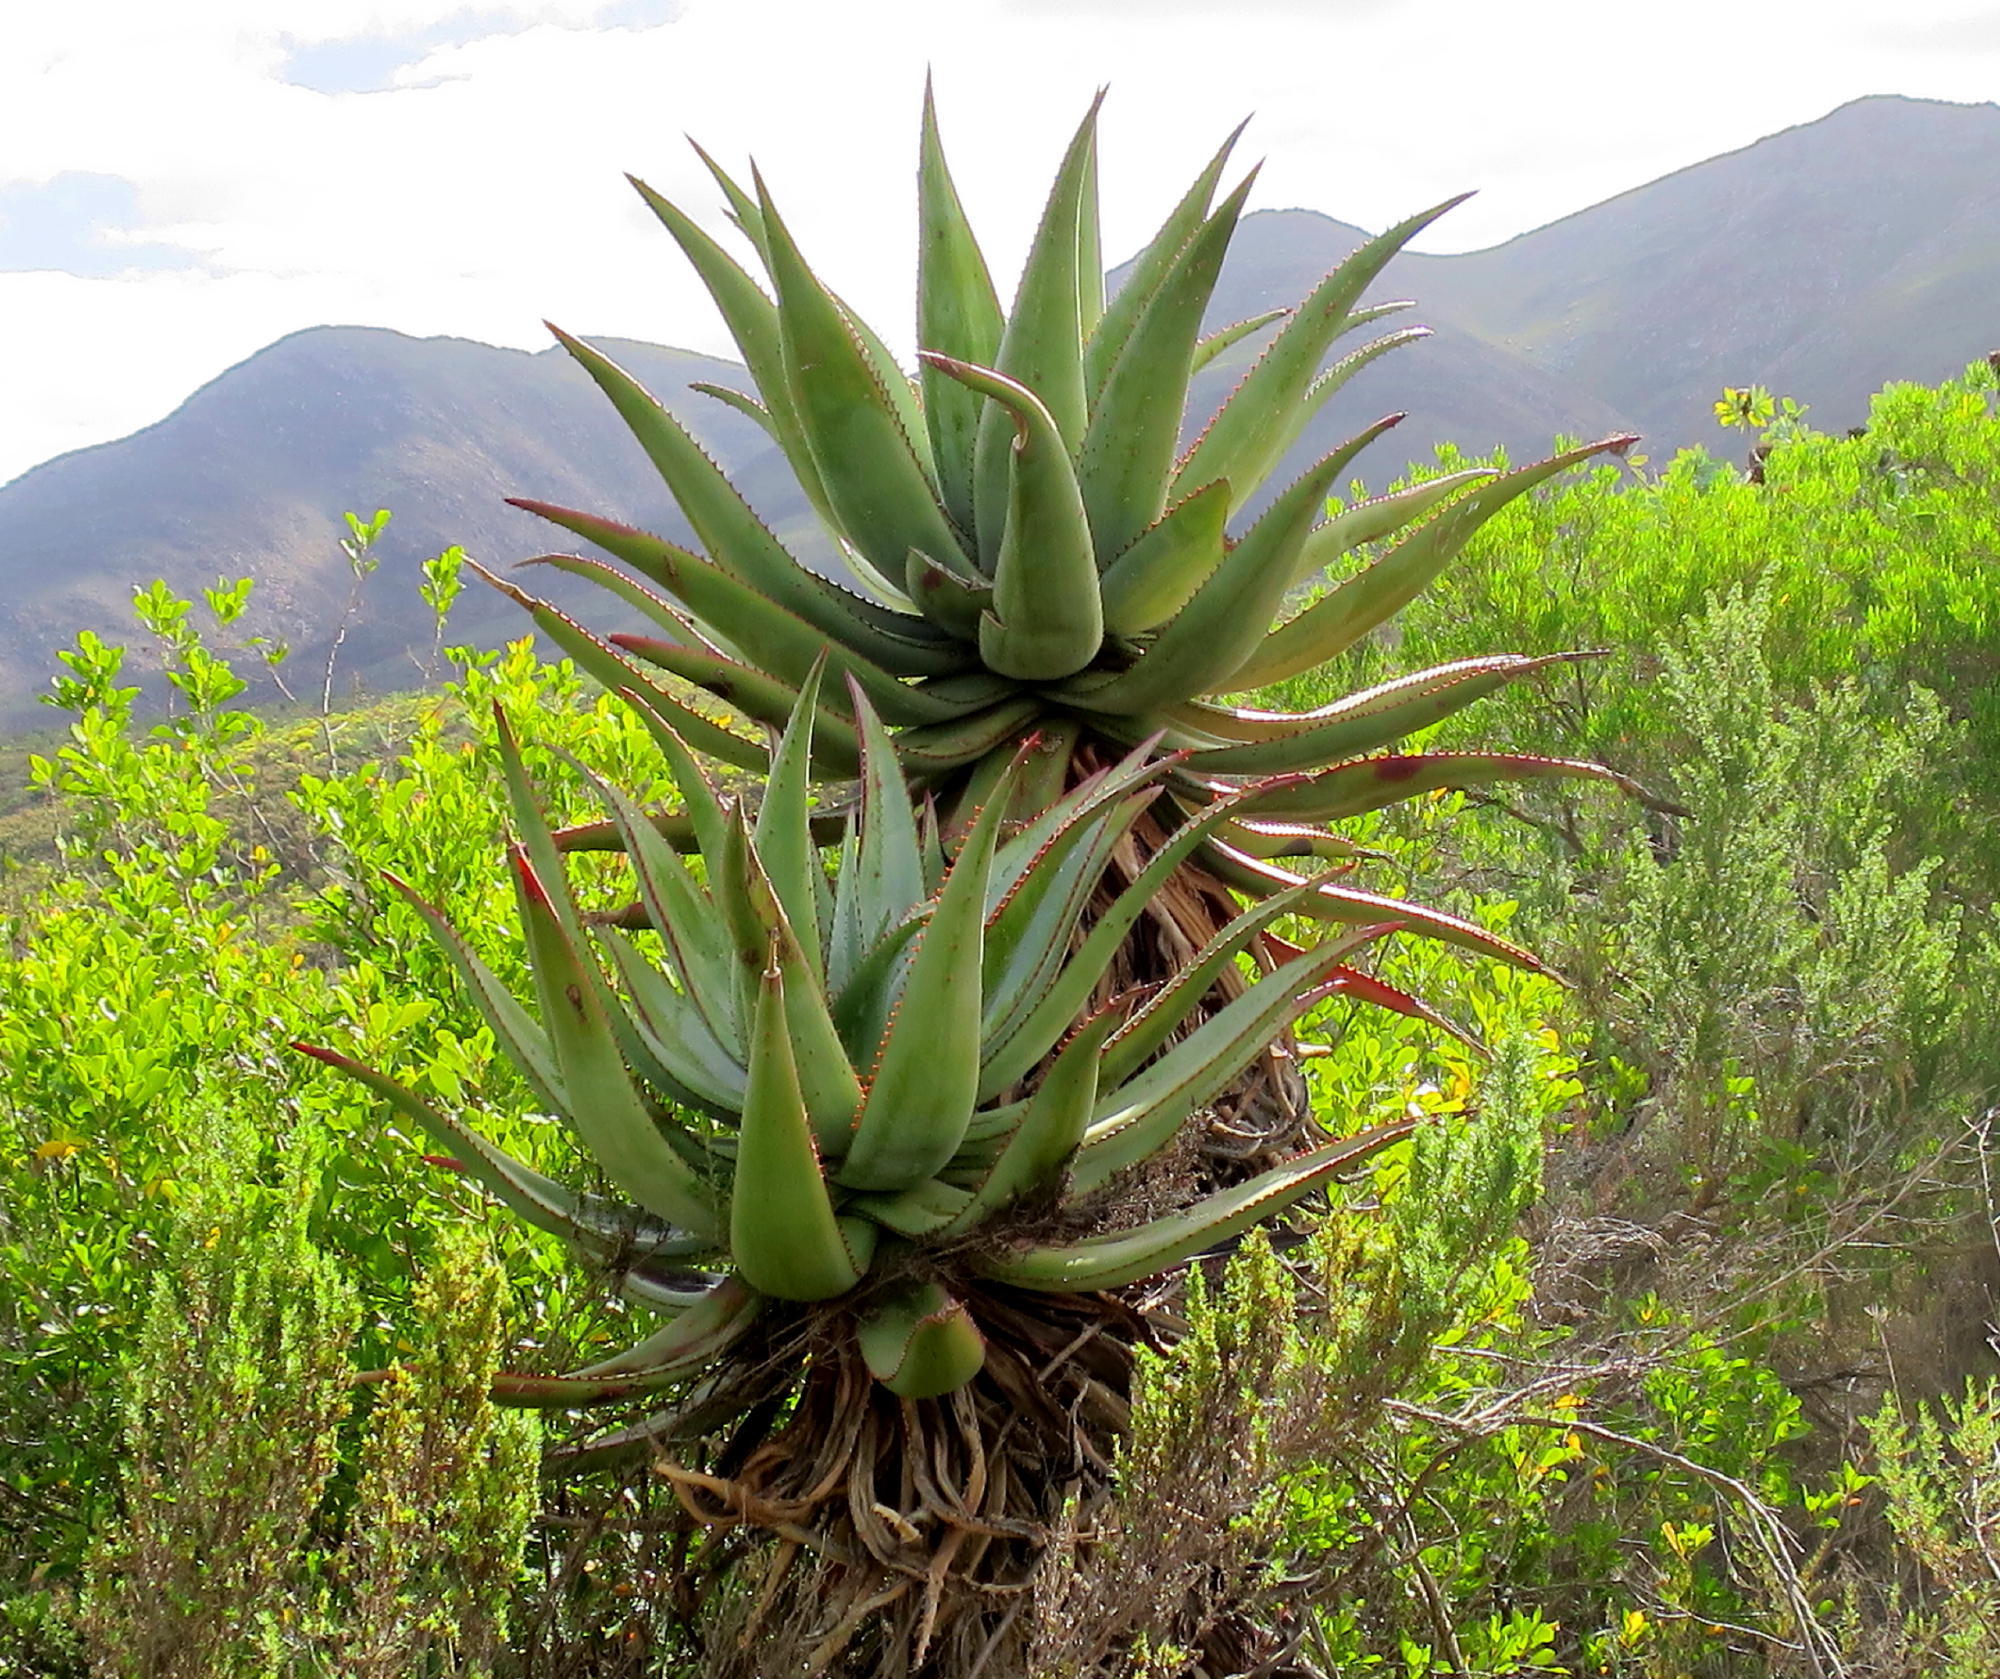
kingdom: Plantae
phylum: Tracheophyta
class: Liliopsida
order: Asparagales
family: Asphodelaceae
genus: Aloe
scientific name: Aloe ferox
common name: Bitter aloe
